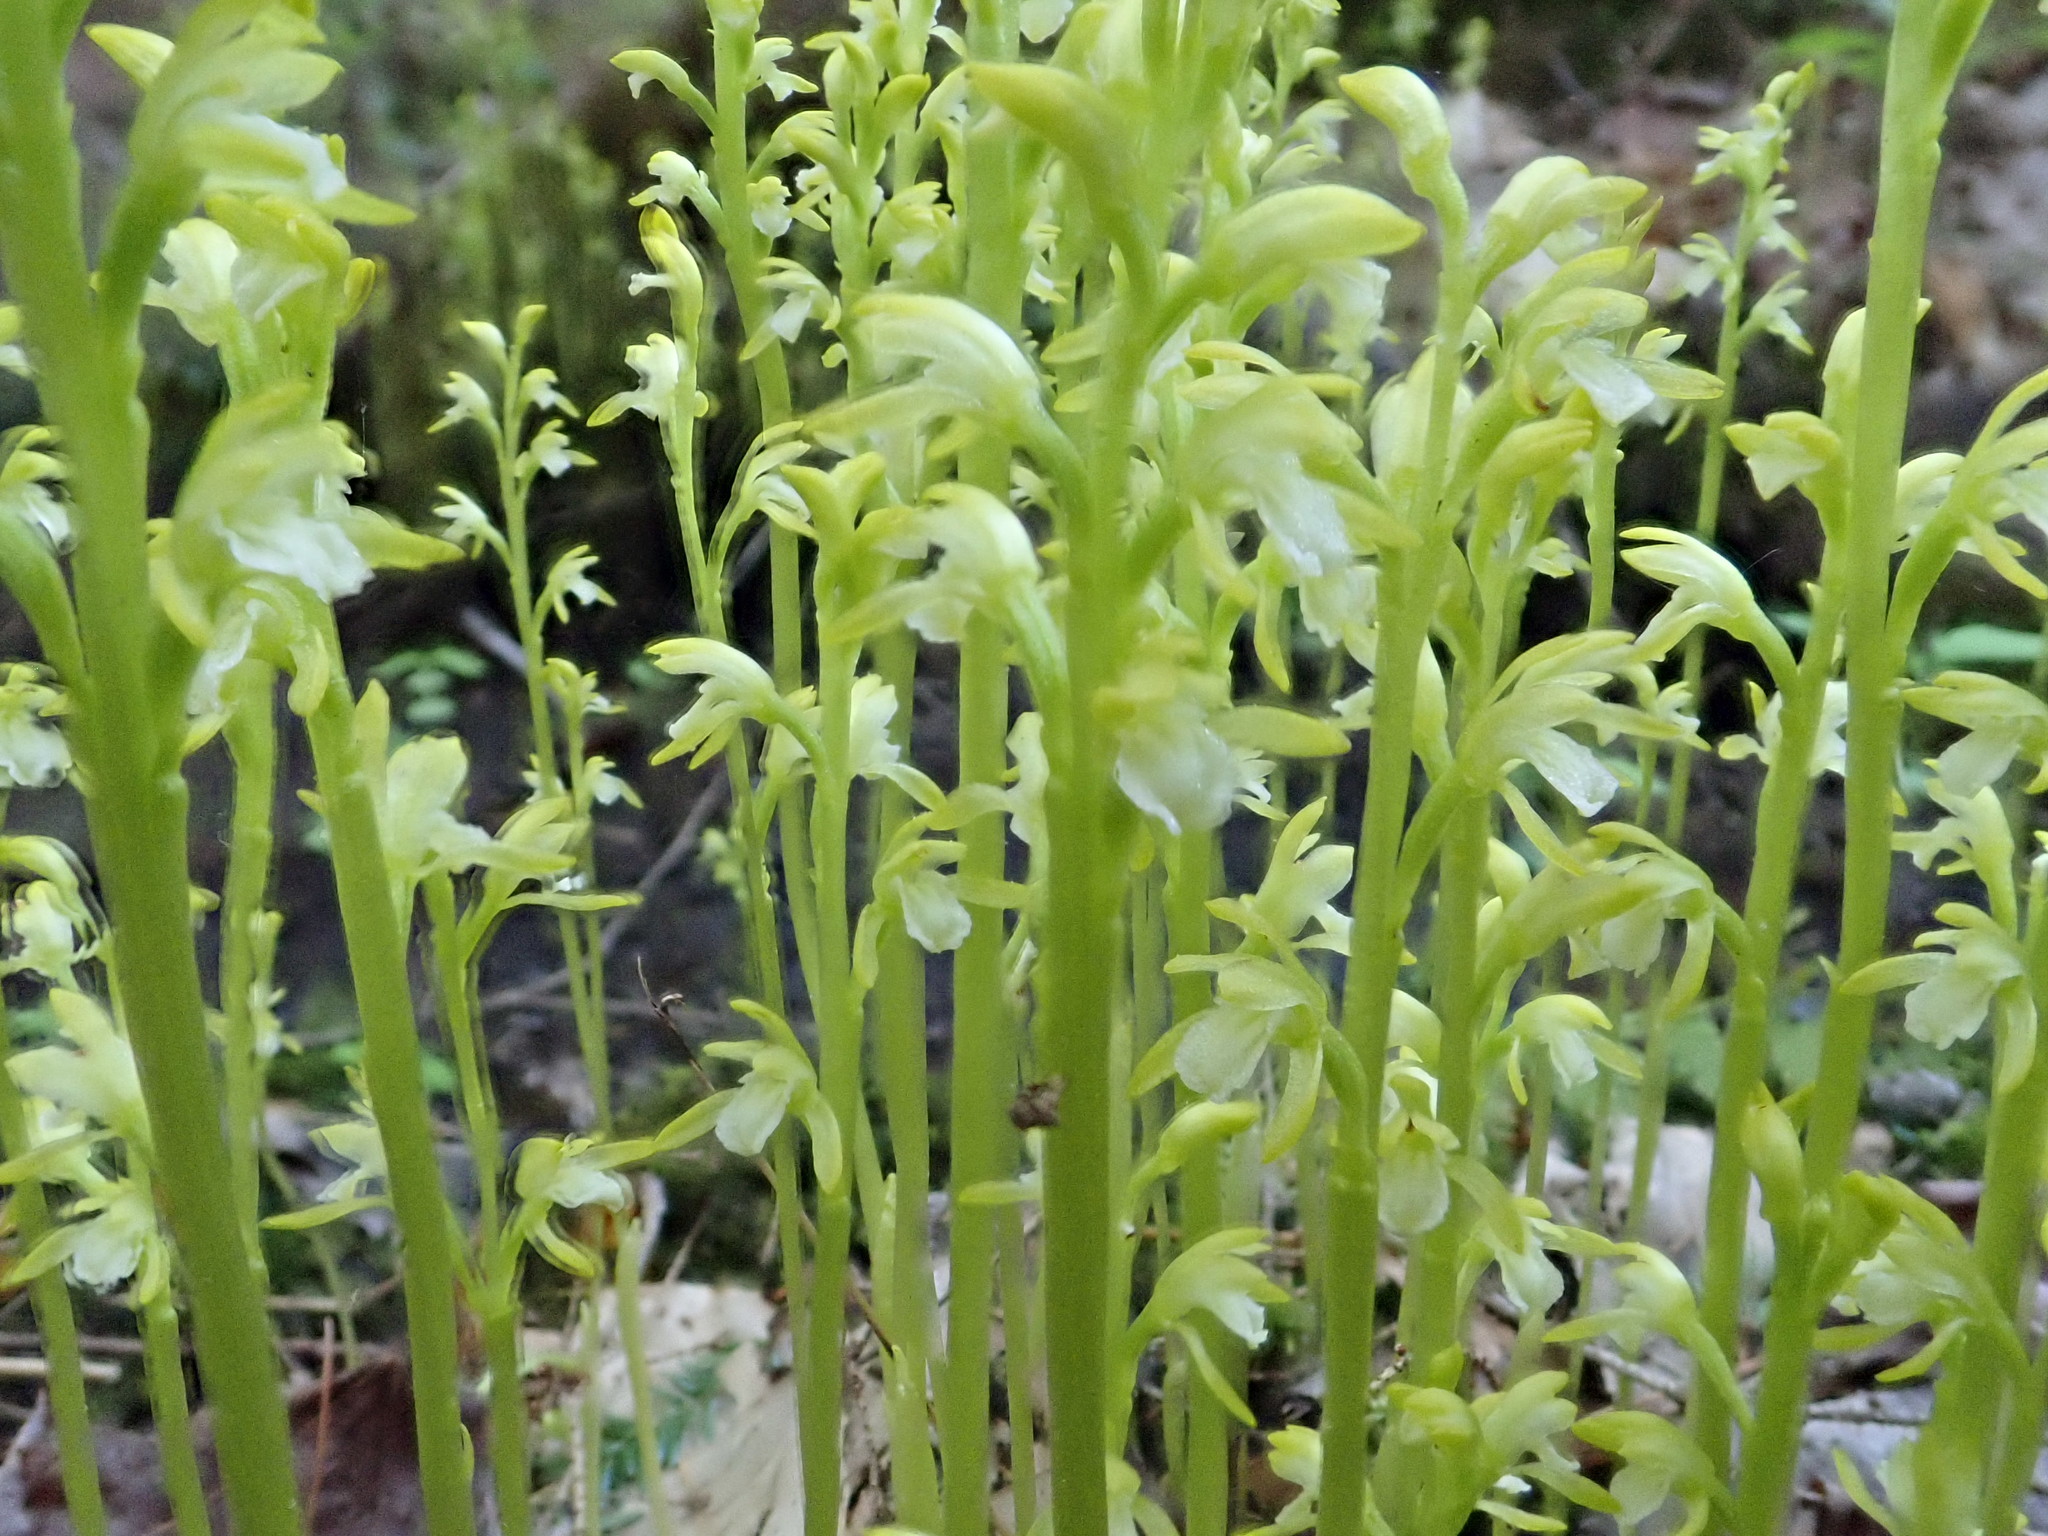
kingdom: Plantae
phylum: Tracheophyta
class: Liliopsida
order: Asparagales
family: Orchidaceae
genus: Corallorhiza
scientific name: Corallorhiza trifida
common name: Yellow coralroot
